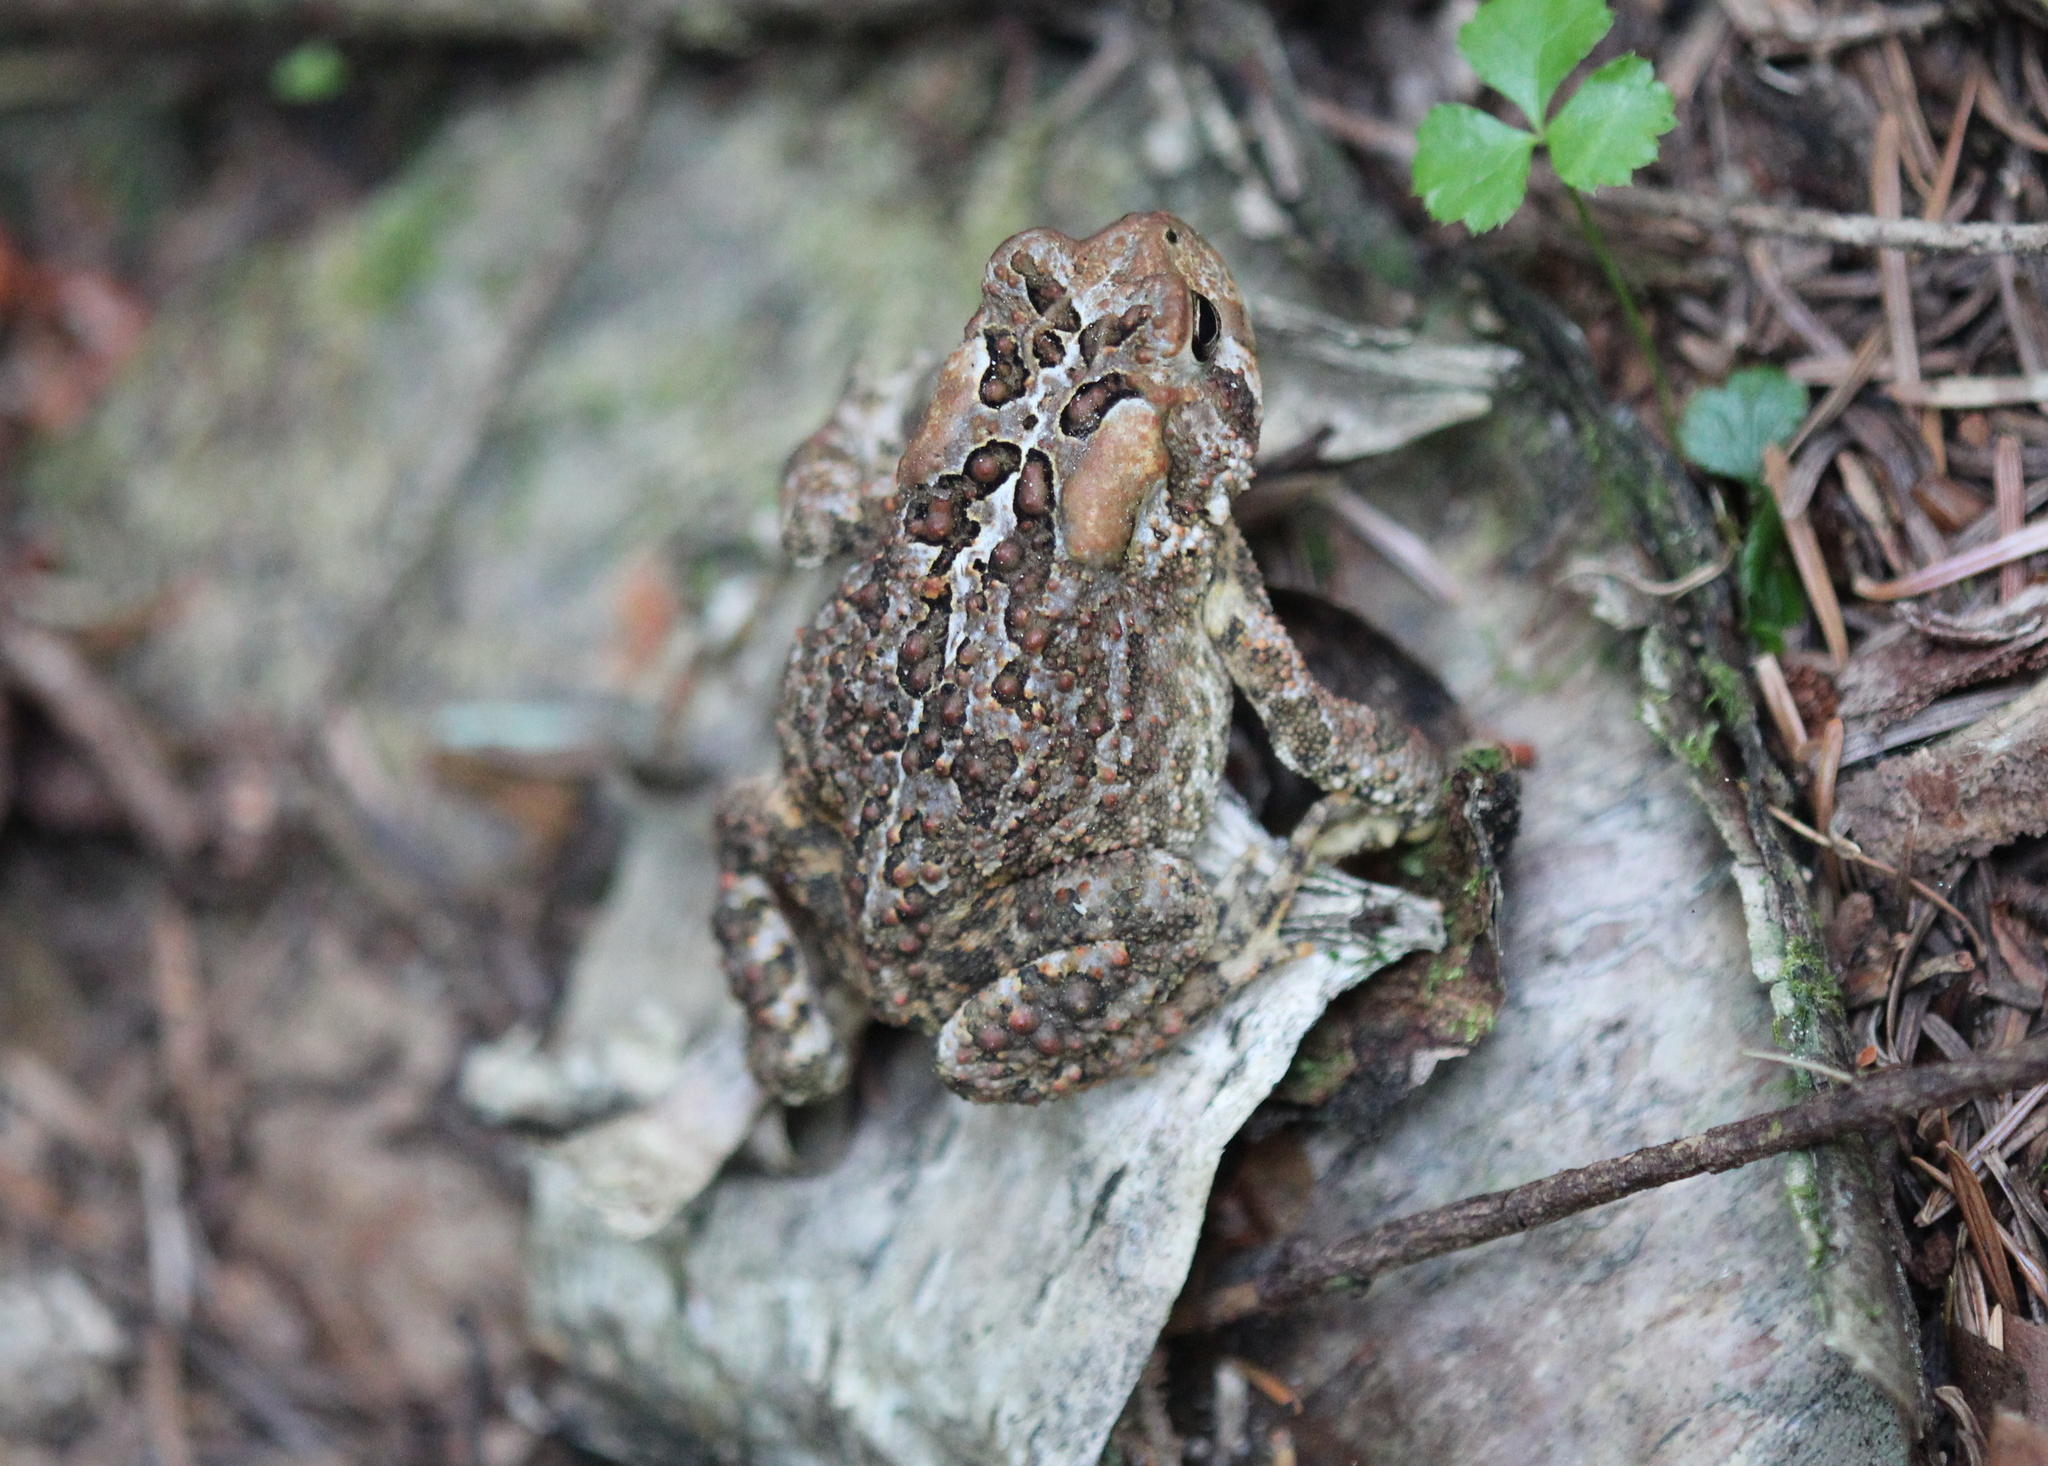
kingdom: Animalia
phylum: Chordata
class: Amphibia
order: Anura
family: Bufonidae
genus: Anaxyrus
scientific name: Anaxyrus americanus
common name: American toad
